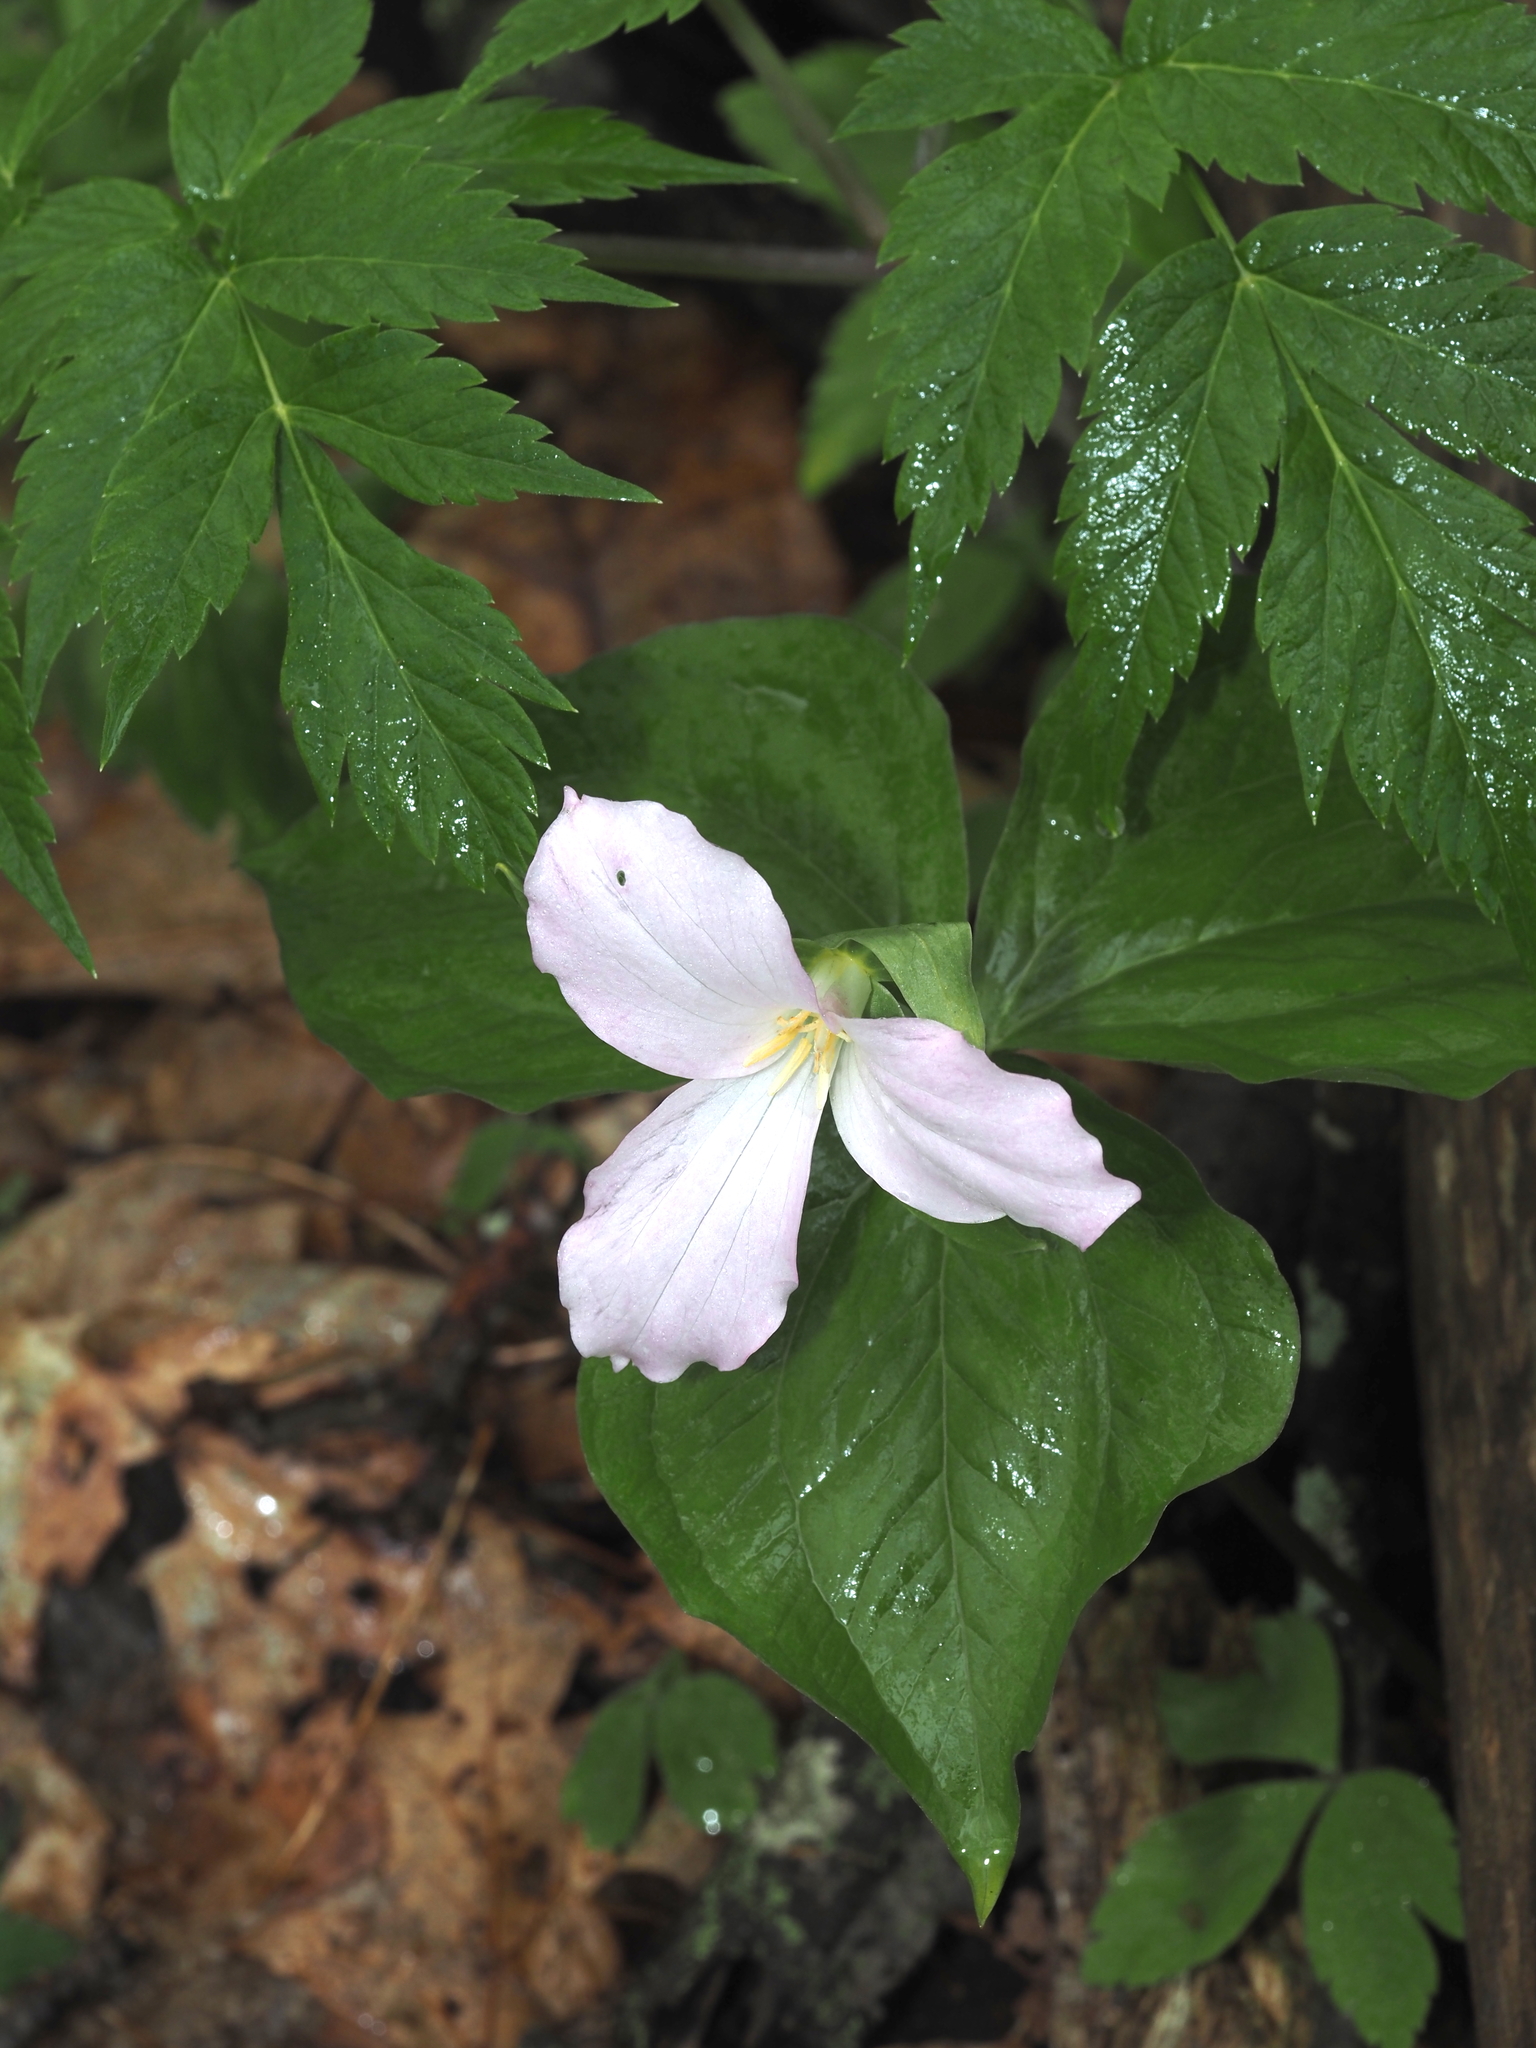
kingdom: Plantae
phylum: Tracheophyta
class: Liliopsida
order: Liliales
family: Melanthiaceae
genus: Trillium
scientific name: Trillium grandiflorum
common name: Great white trillium
